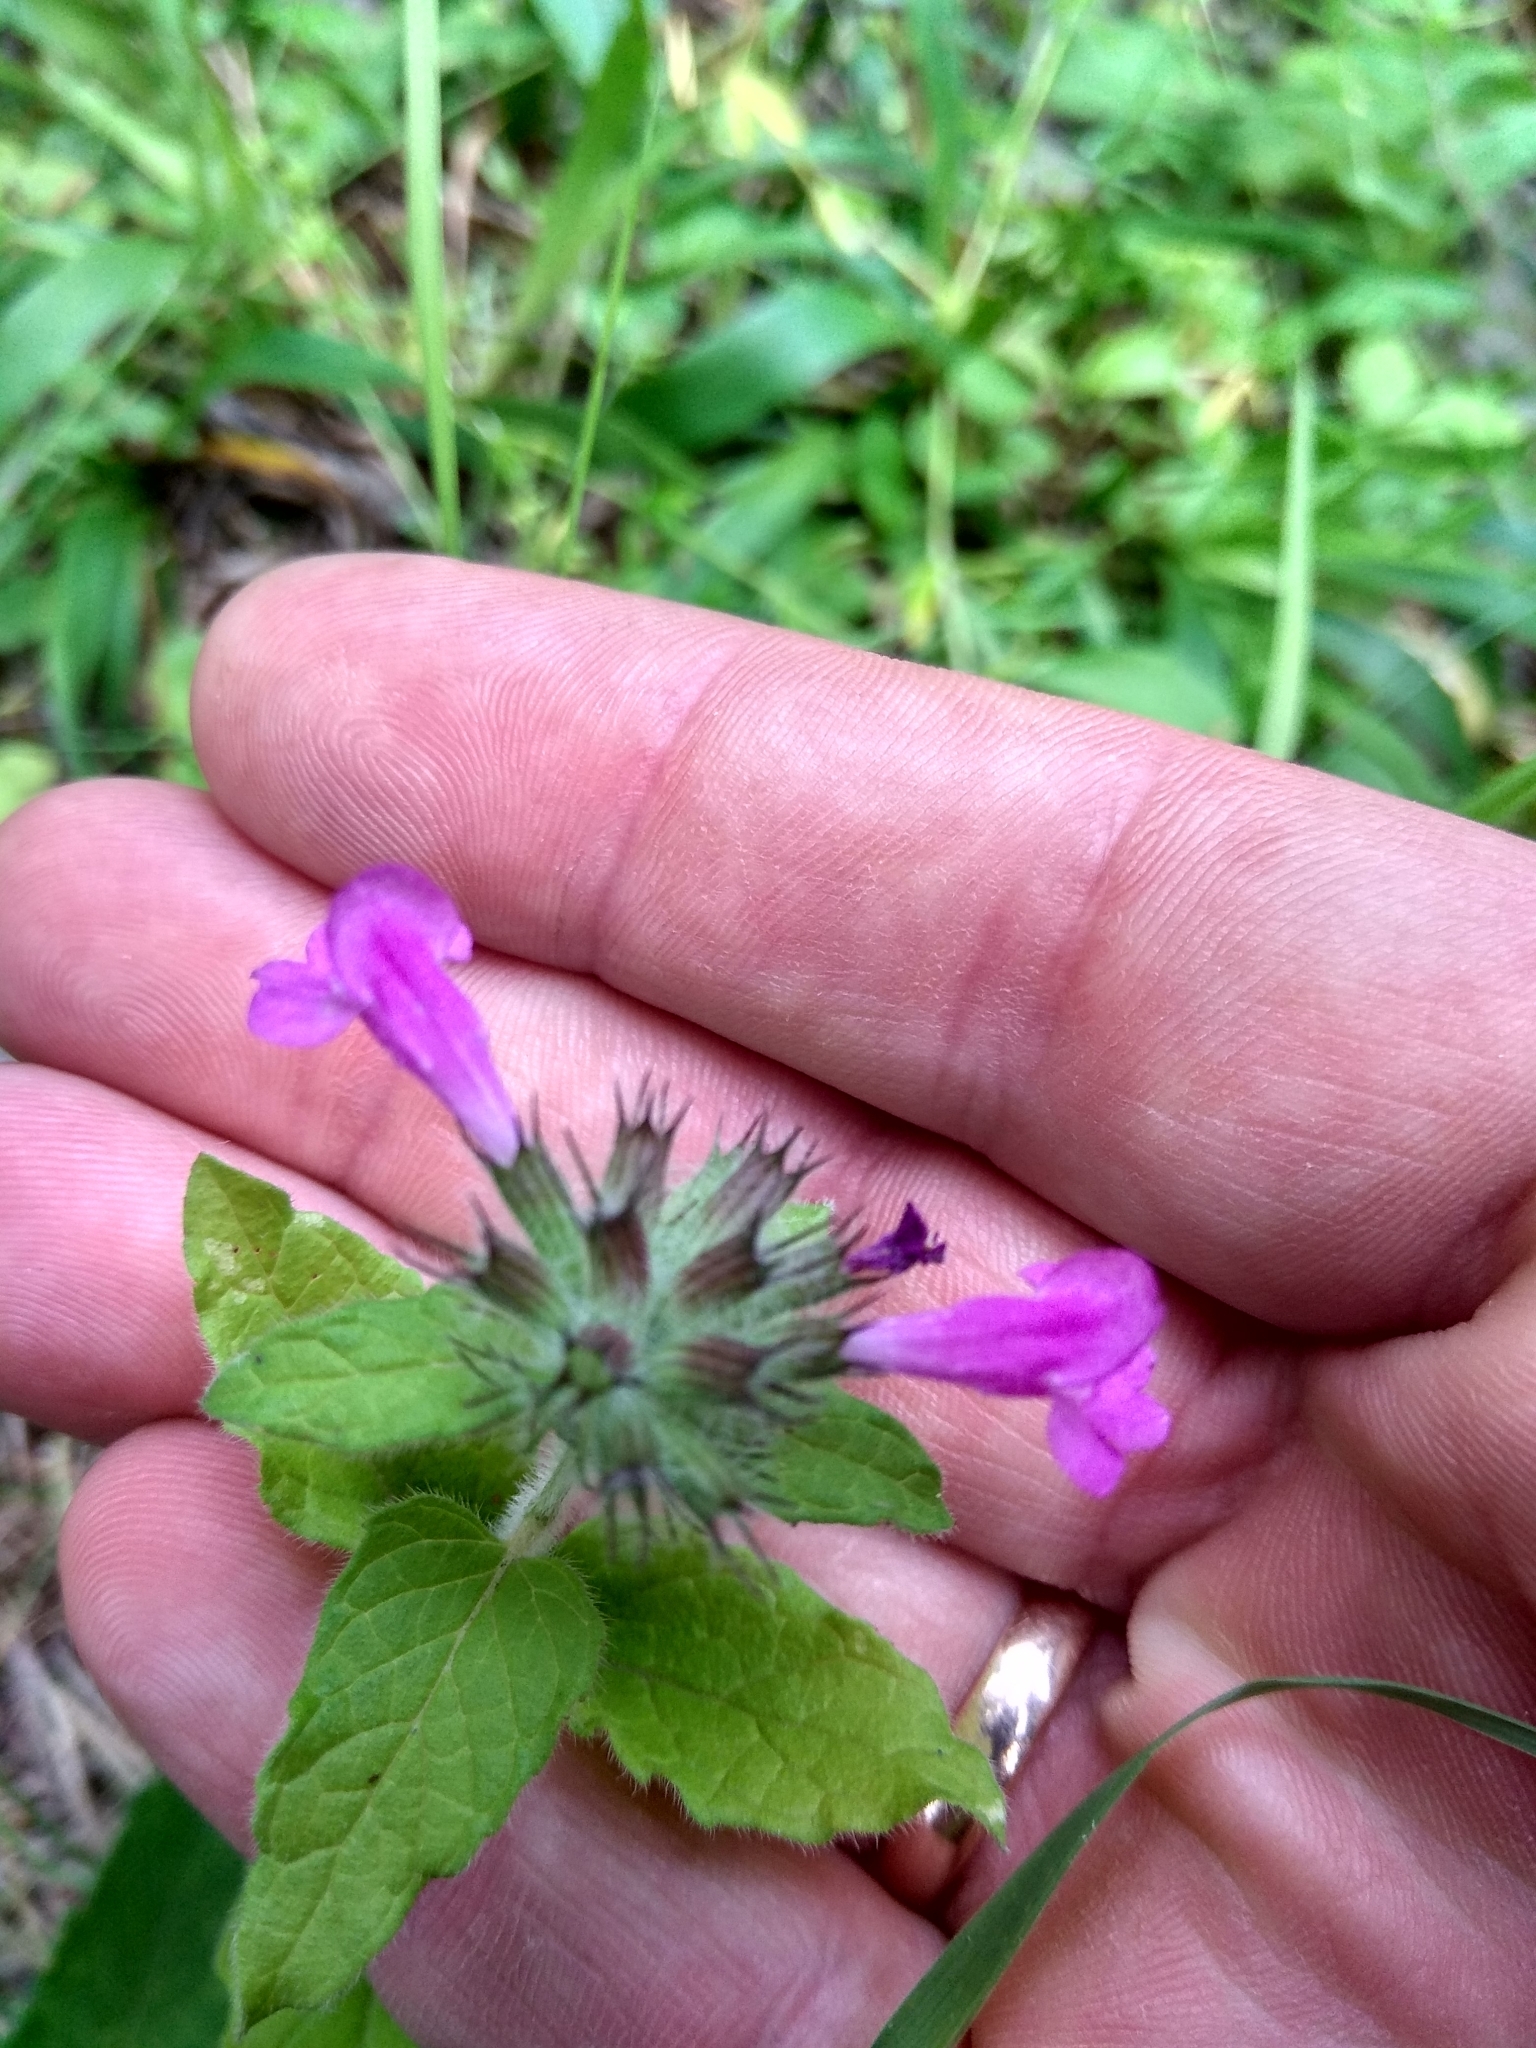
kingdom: Plantae
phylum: Tracheophyta
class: Magnoliopsida
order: Lamiales
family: Lamiaceae
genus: Clinopodium
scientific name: Clinopodium vulgare
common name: Wild basil
